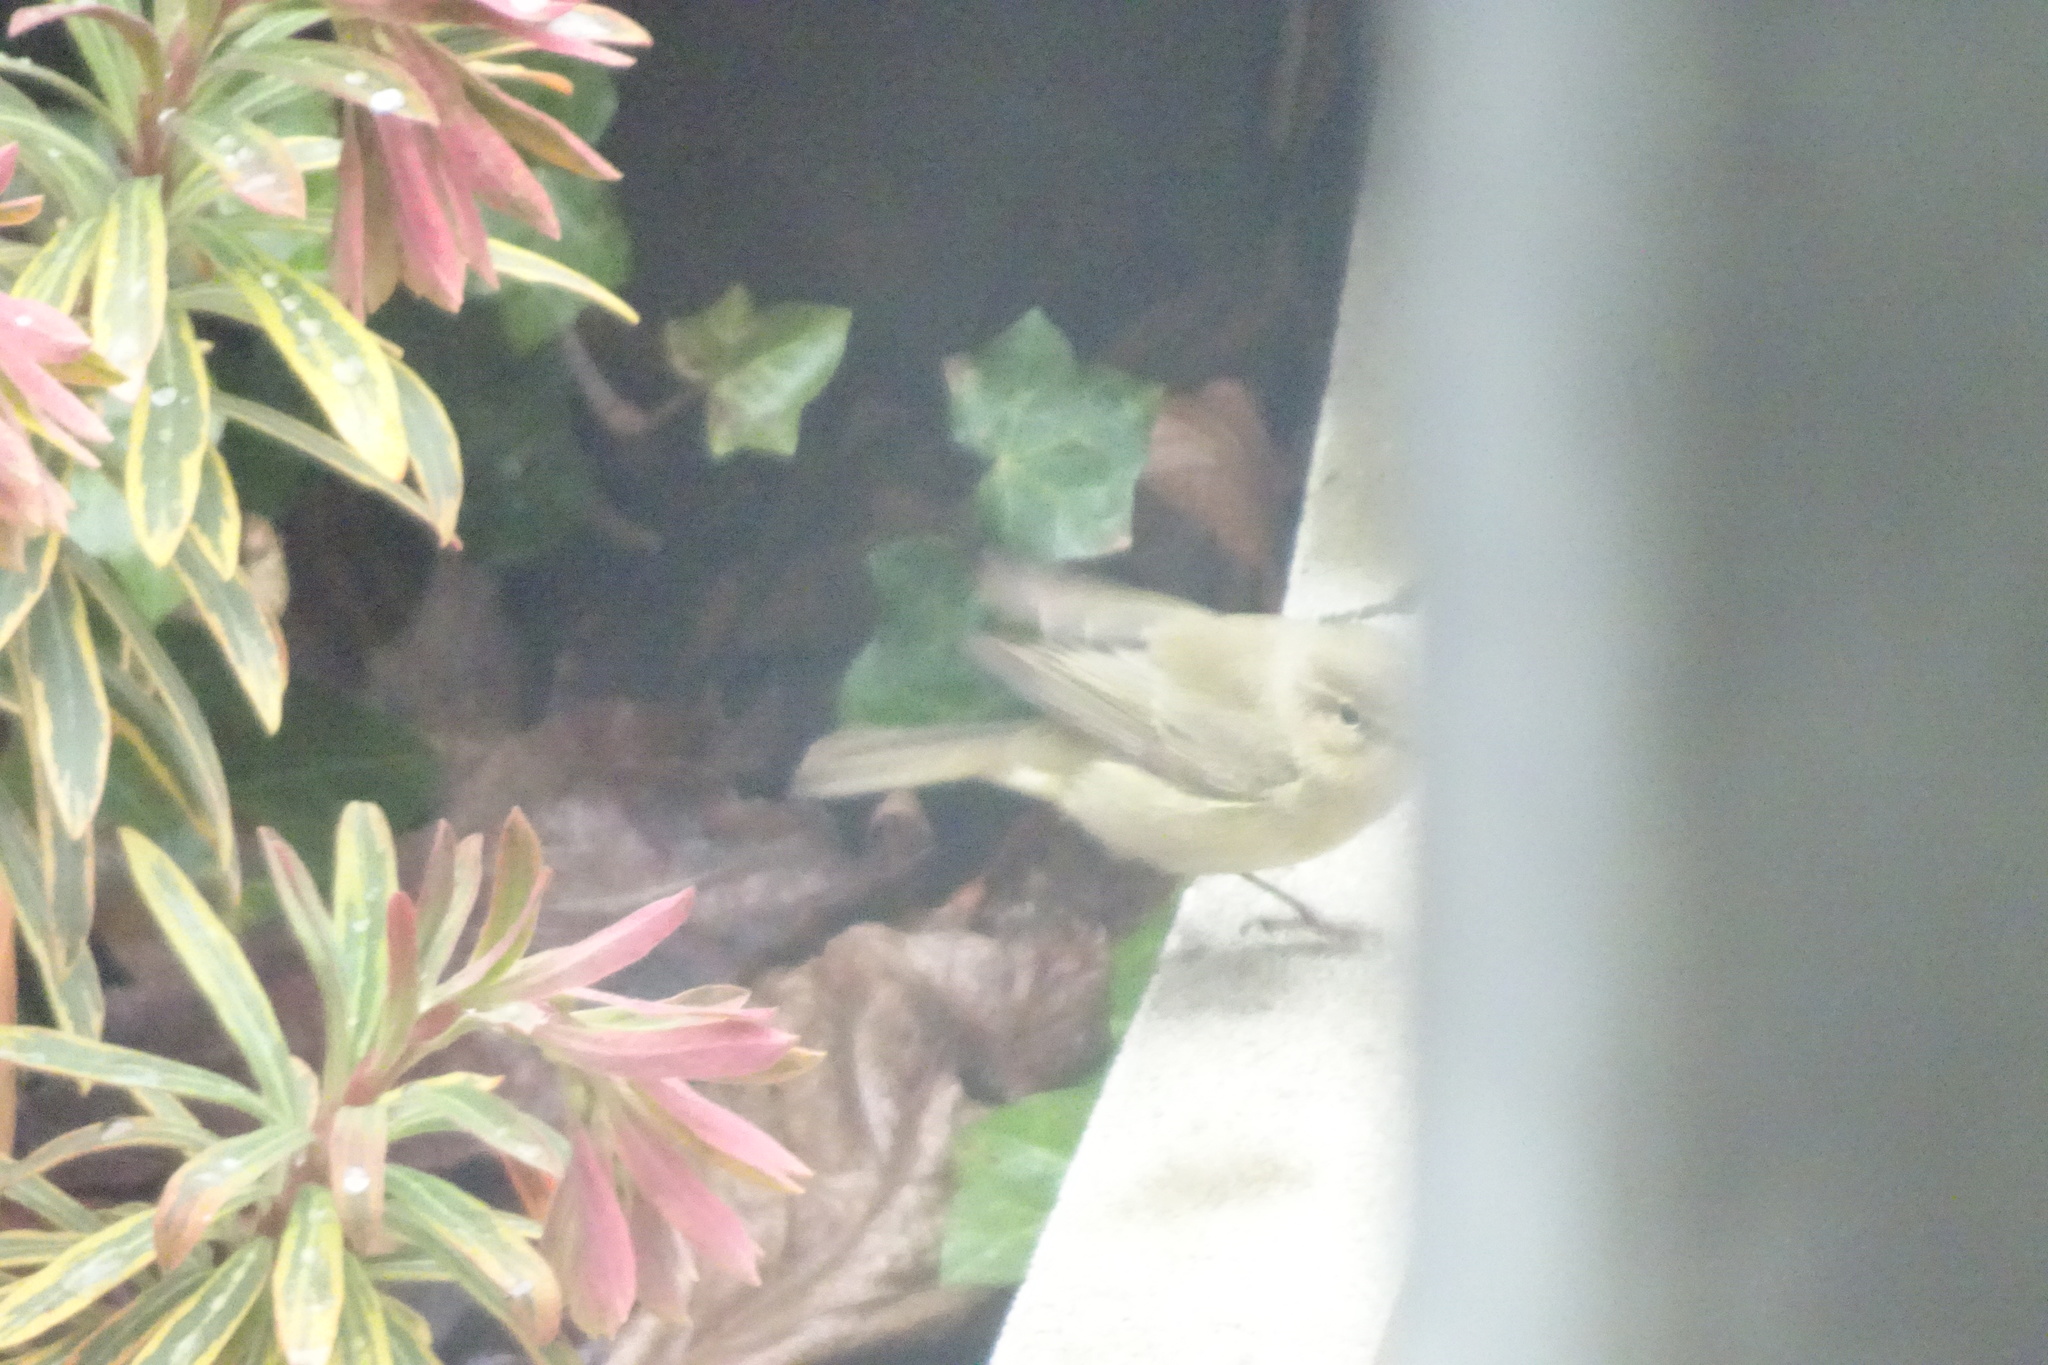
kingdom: Animalia
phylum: Chordata
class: Aves
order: Passeriformes
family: Phylloscopidae
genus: Phylloscopus
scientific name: Phylloscopus collybita
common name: Common chiffchaff
